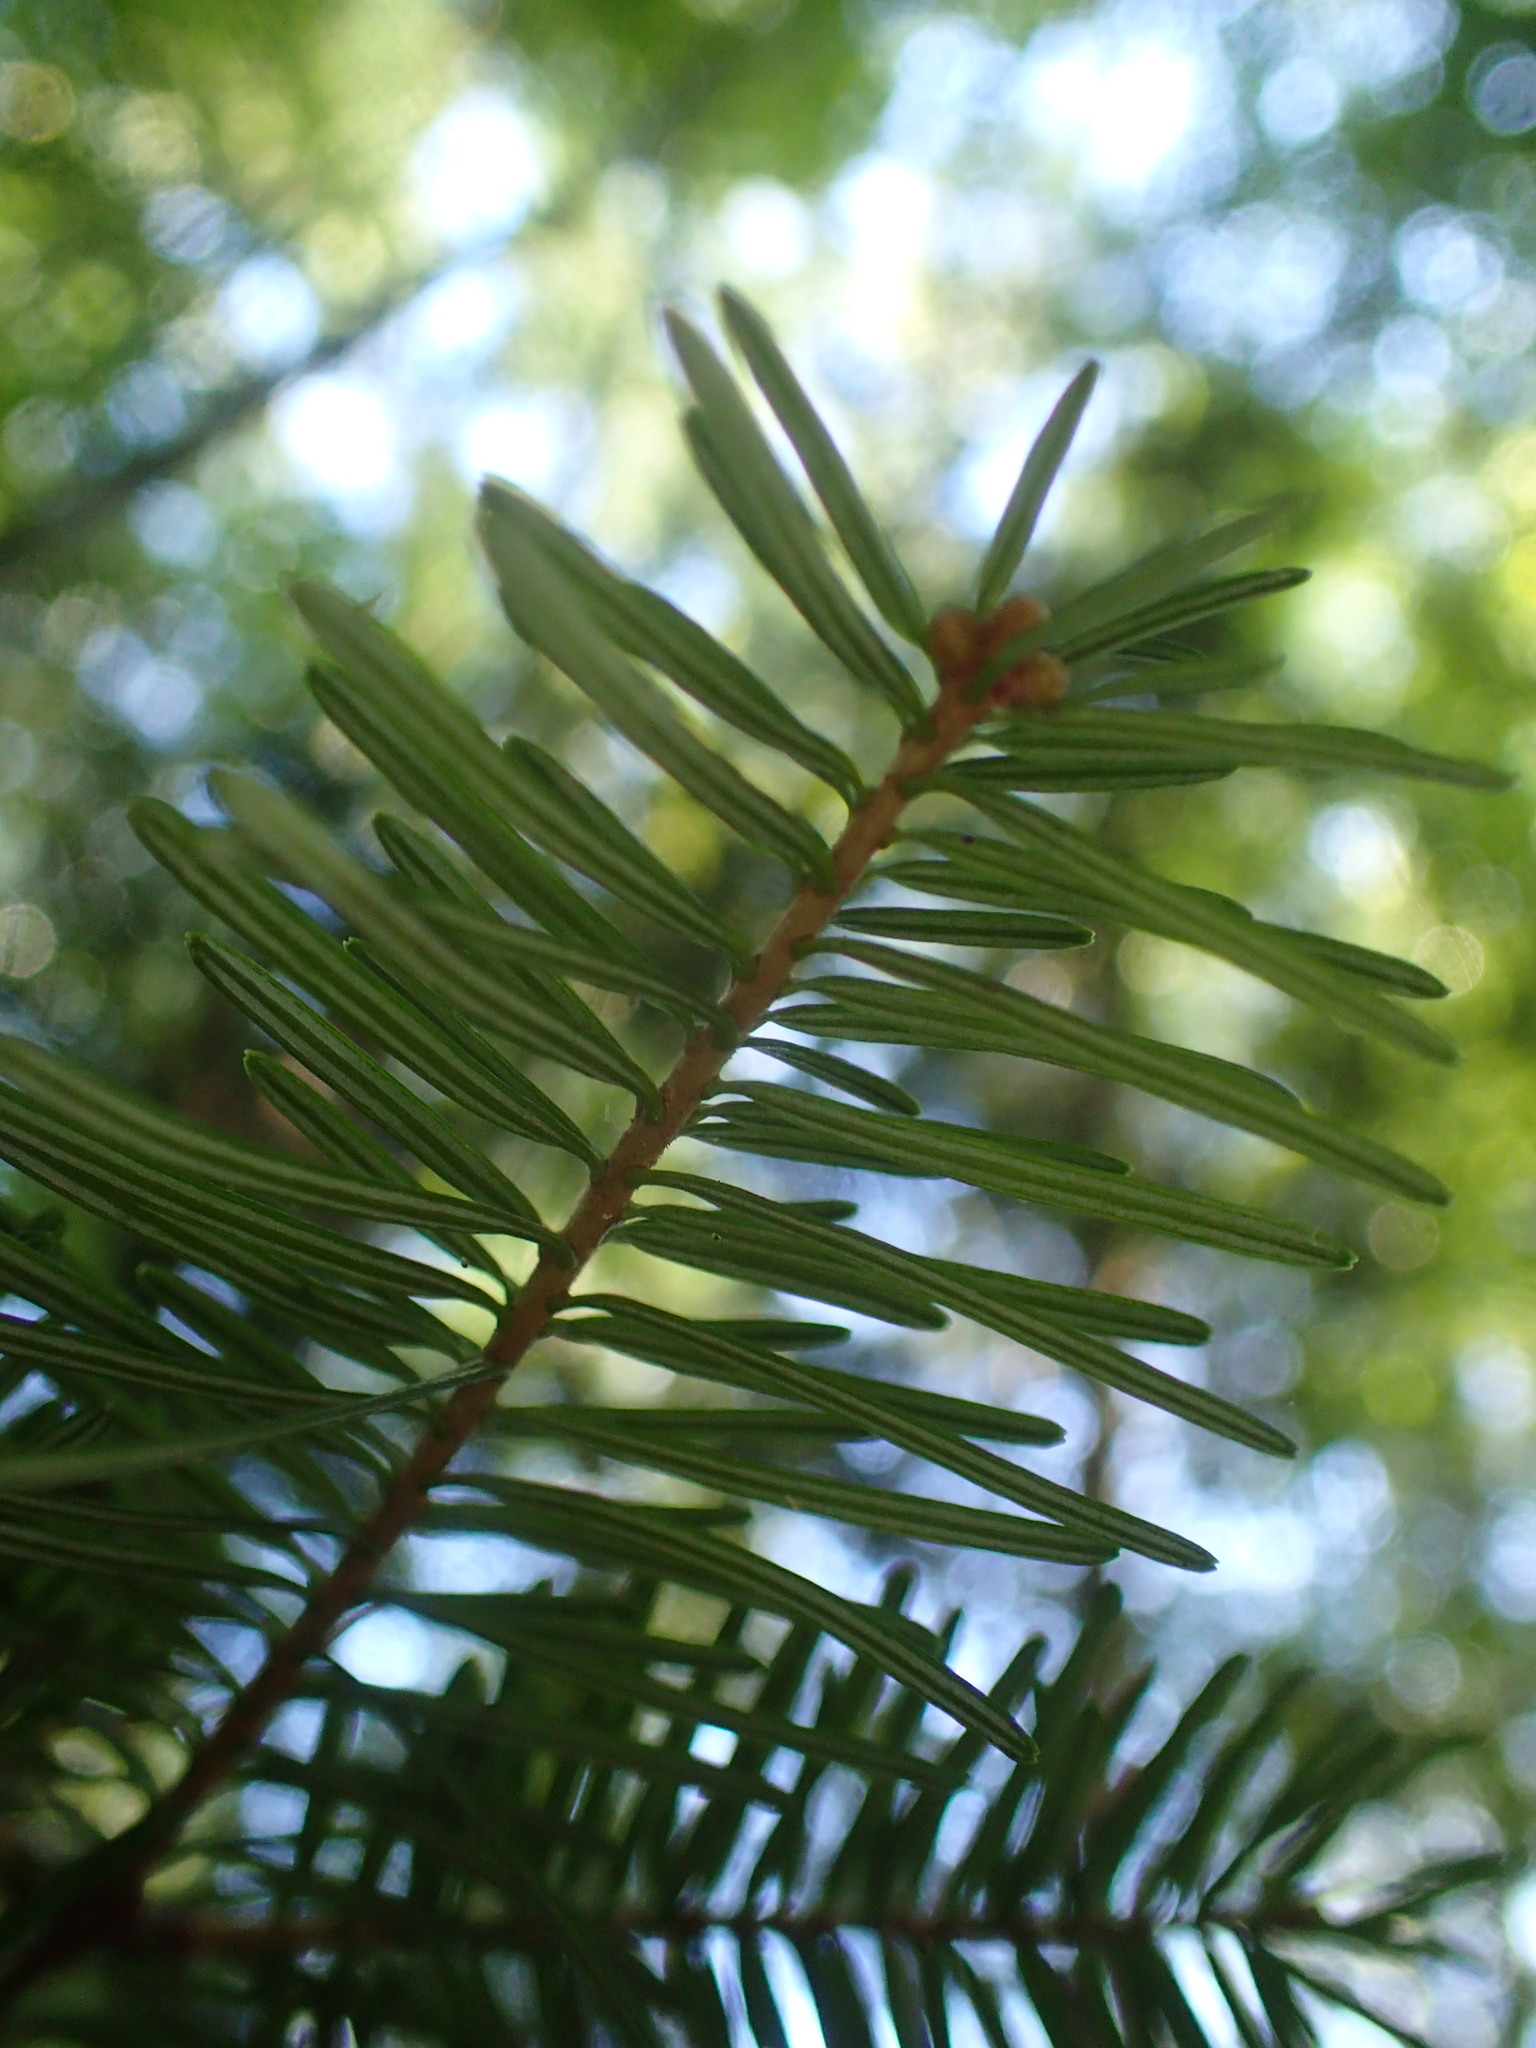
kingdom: Plantae
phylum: Tracheophyta
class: Pinopsida
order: Pinales
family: Pinaceae
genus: Abies
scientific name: Abies balsamea
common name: Balsam fir
